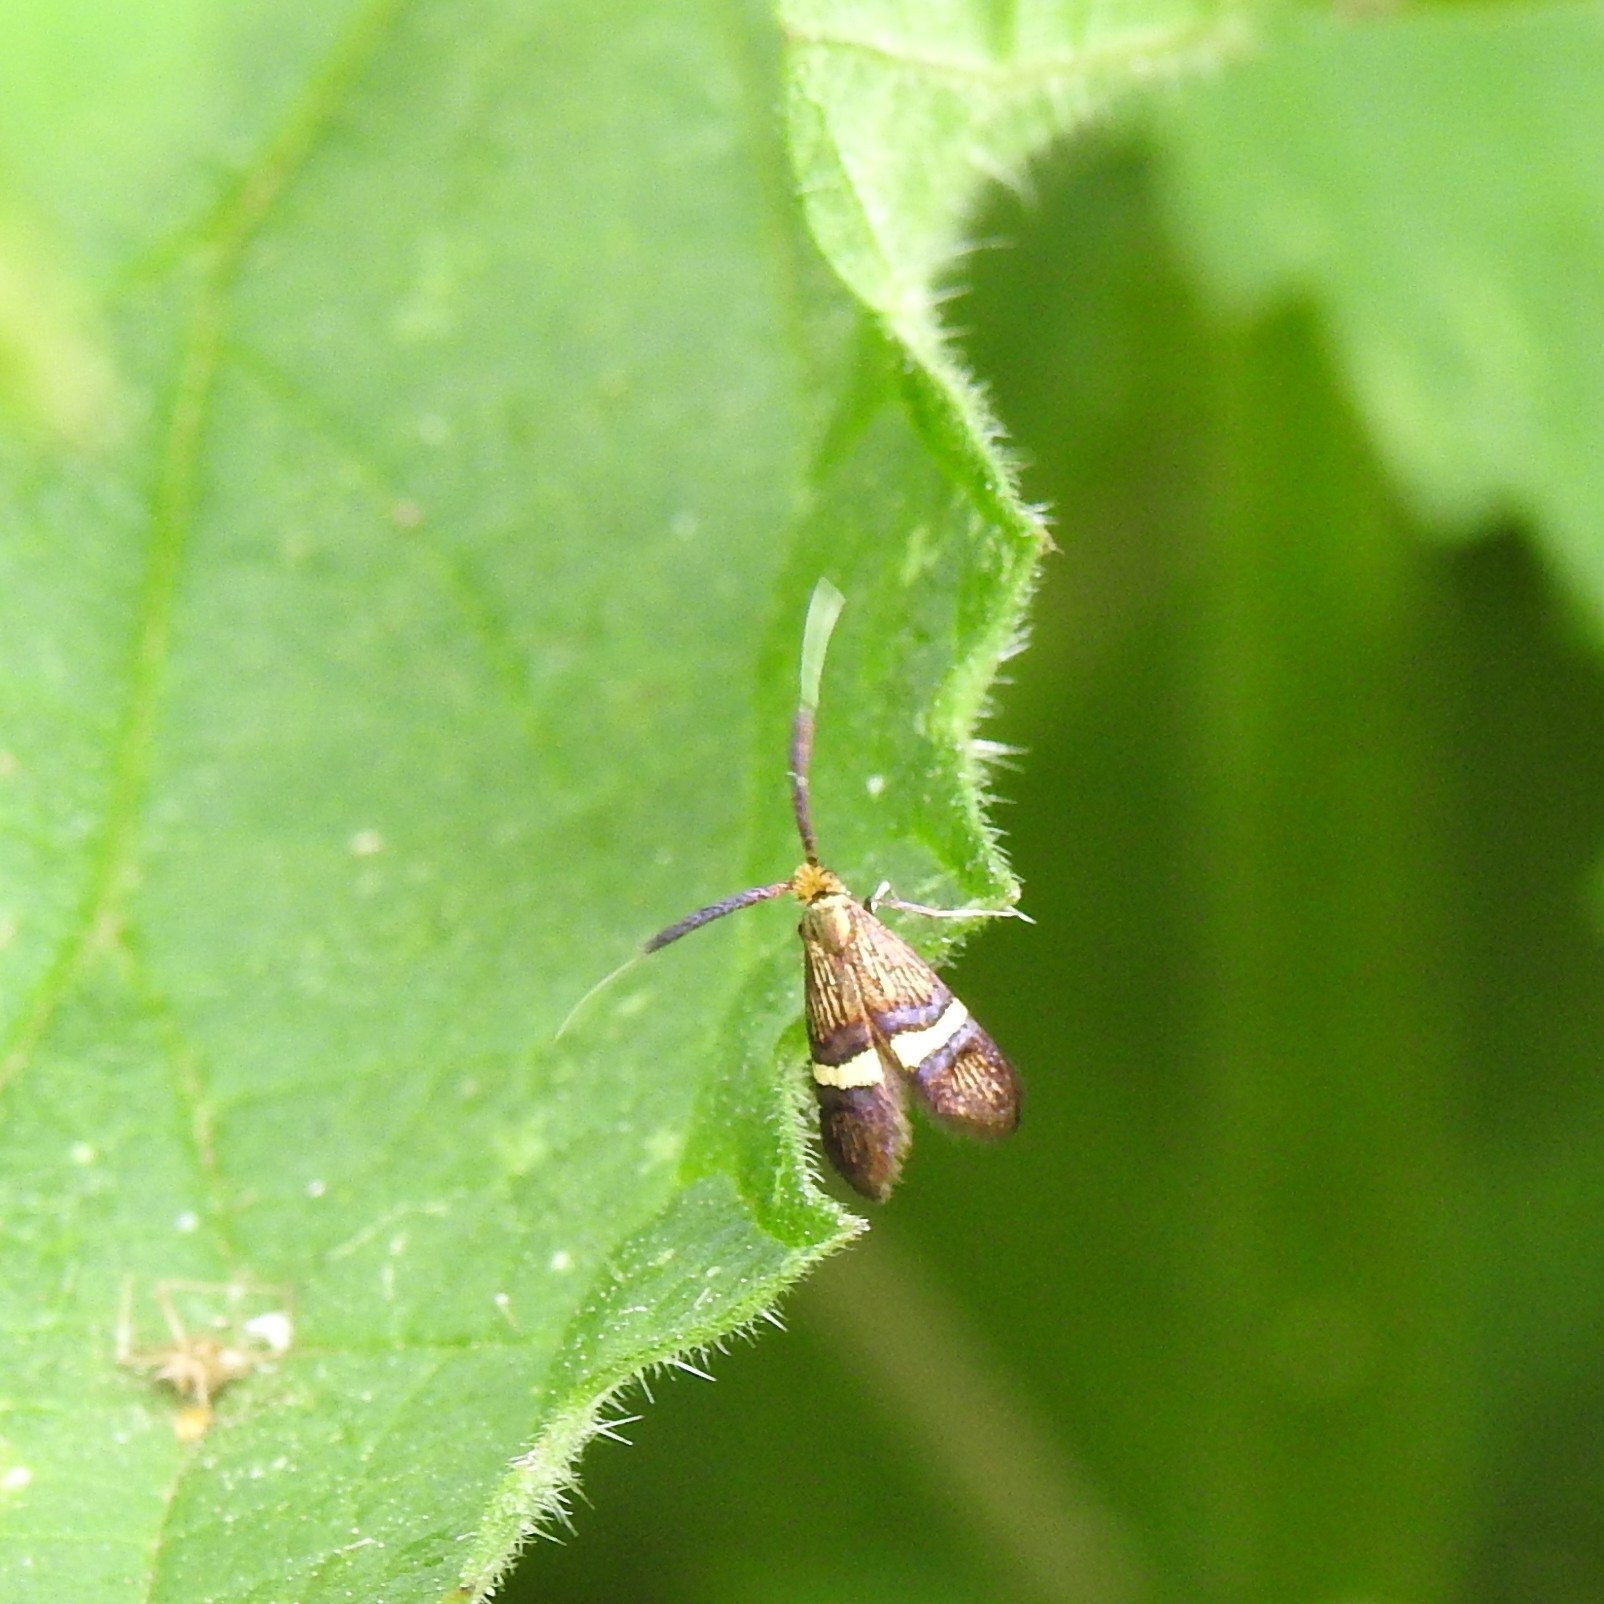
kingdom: Animalia
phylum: Arthropoda
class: Insecta
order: Lepidoptera
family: Adelidae
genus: Adela
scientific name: Adela croesella
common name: Small barred long-horn
